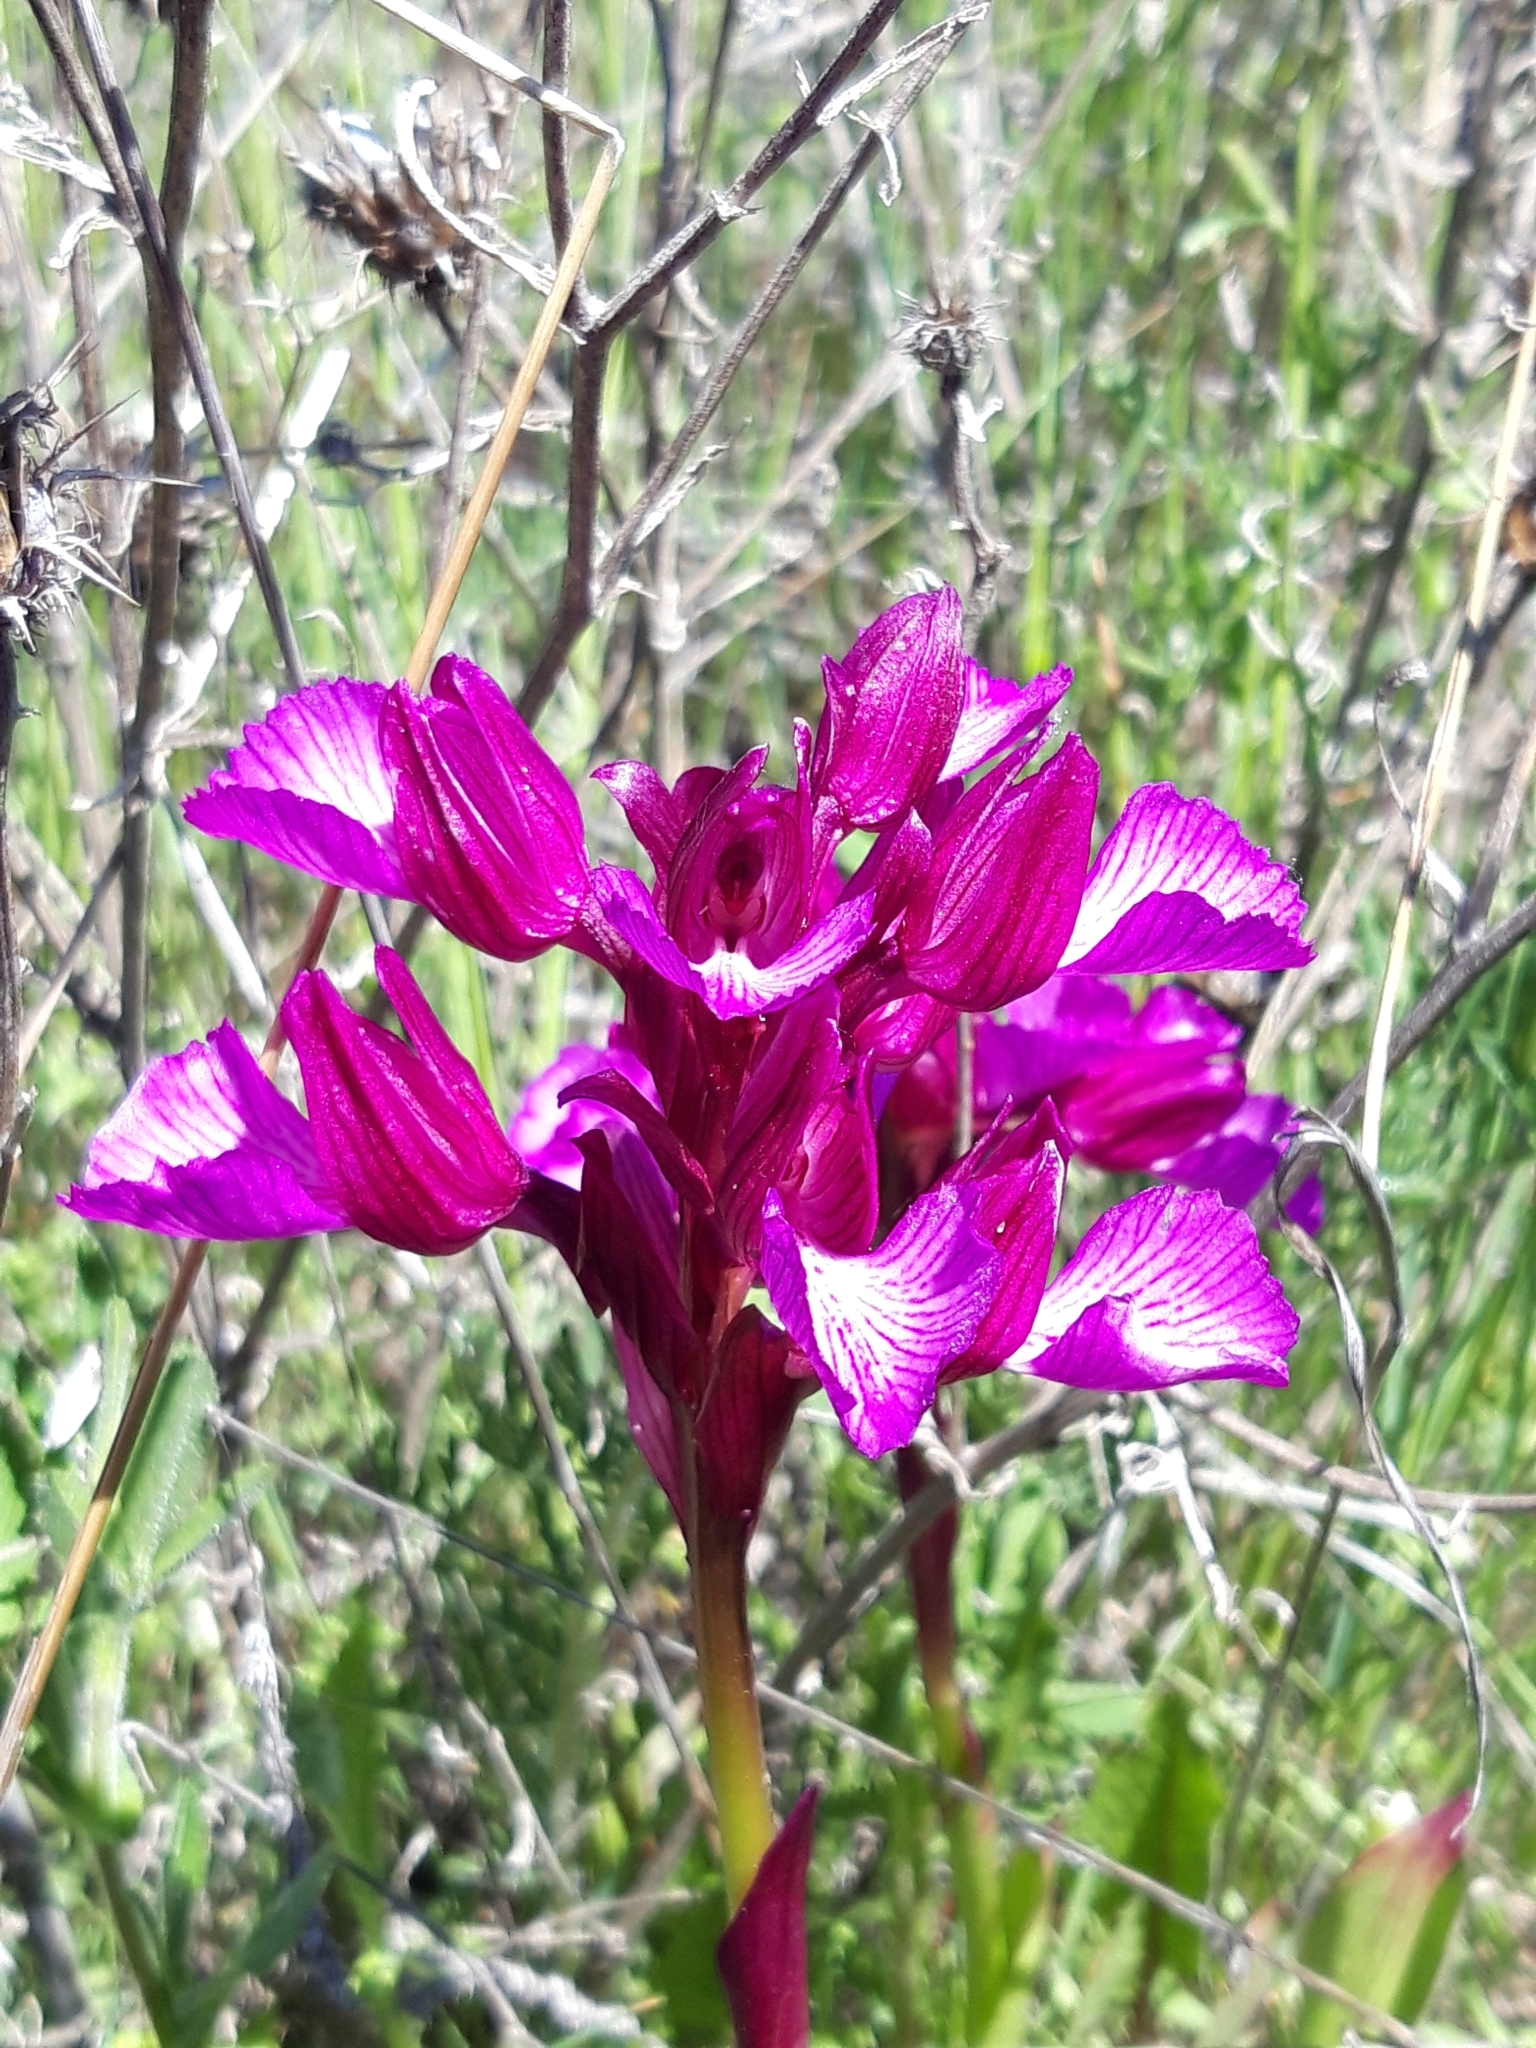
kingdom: Plantae
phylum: Tracheophyta
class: Liliopsida
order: Asparagales
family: Orchidaceae
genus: Anacamptis
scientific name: Anacamptis papilionacea
